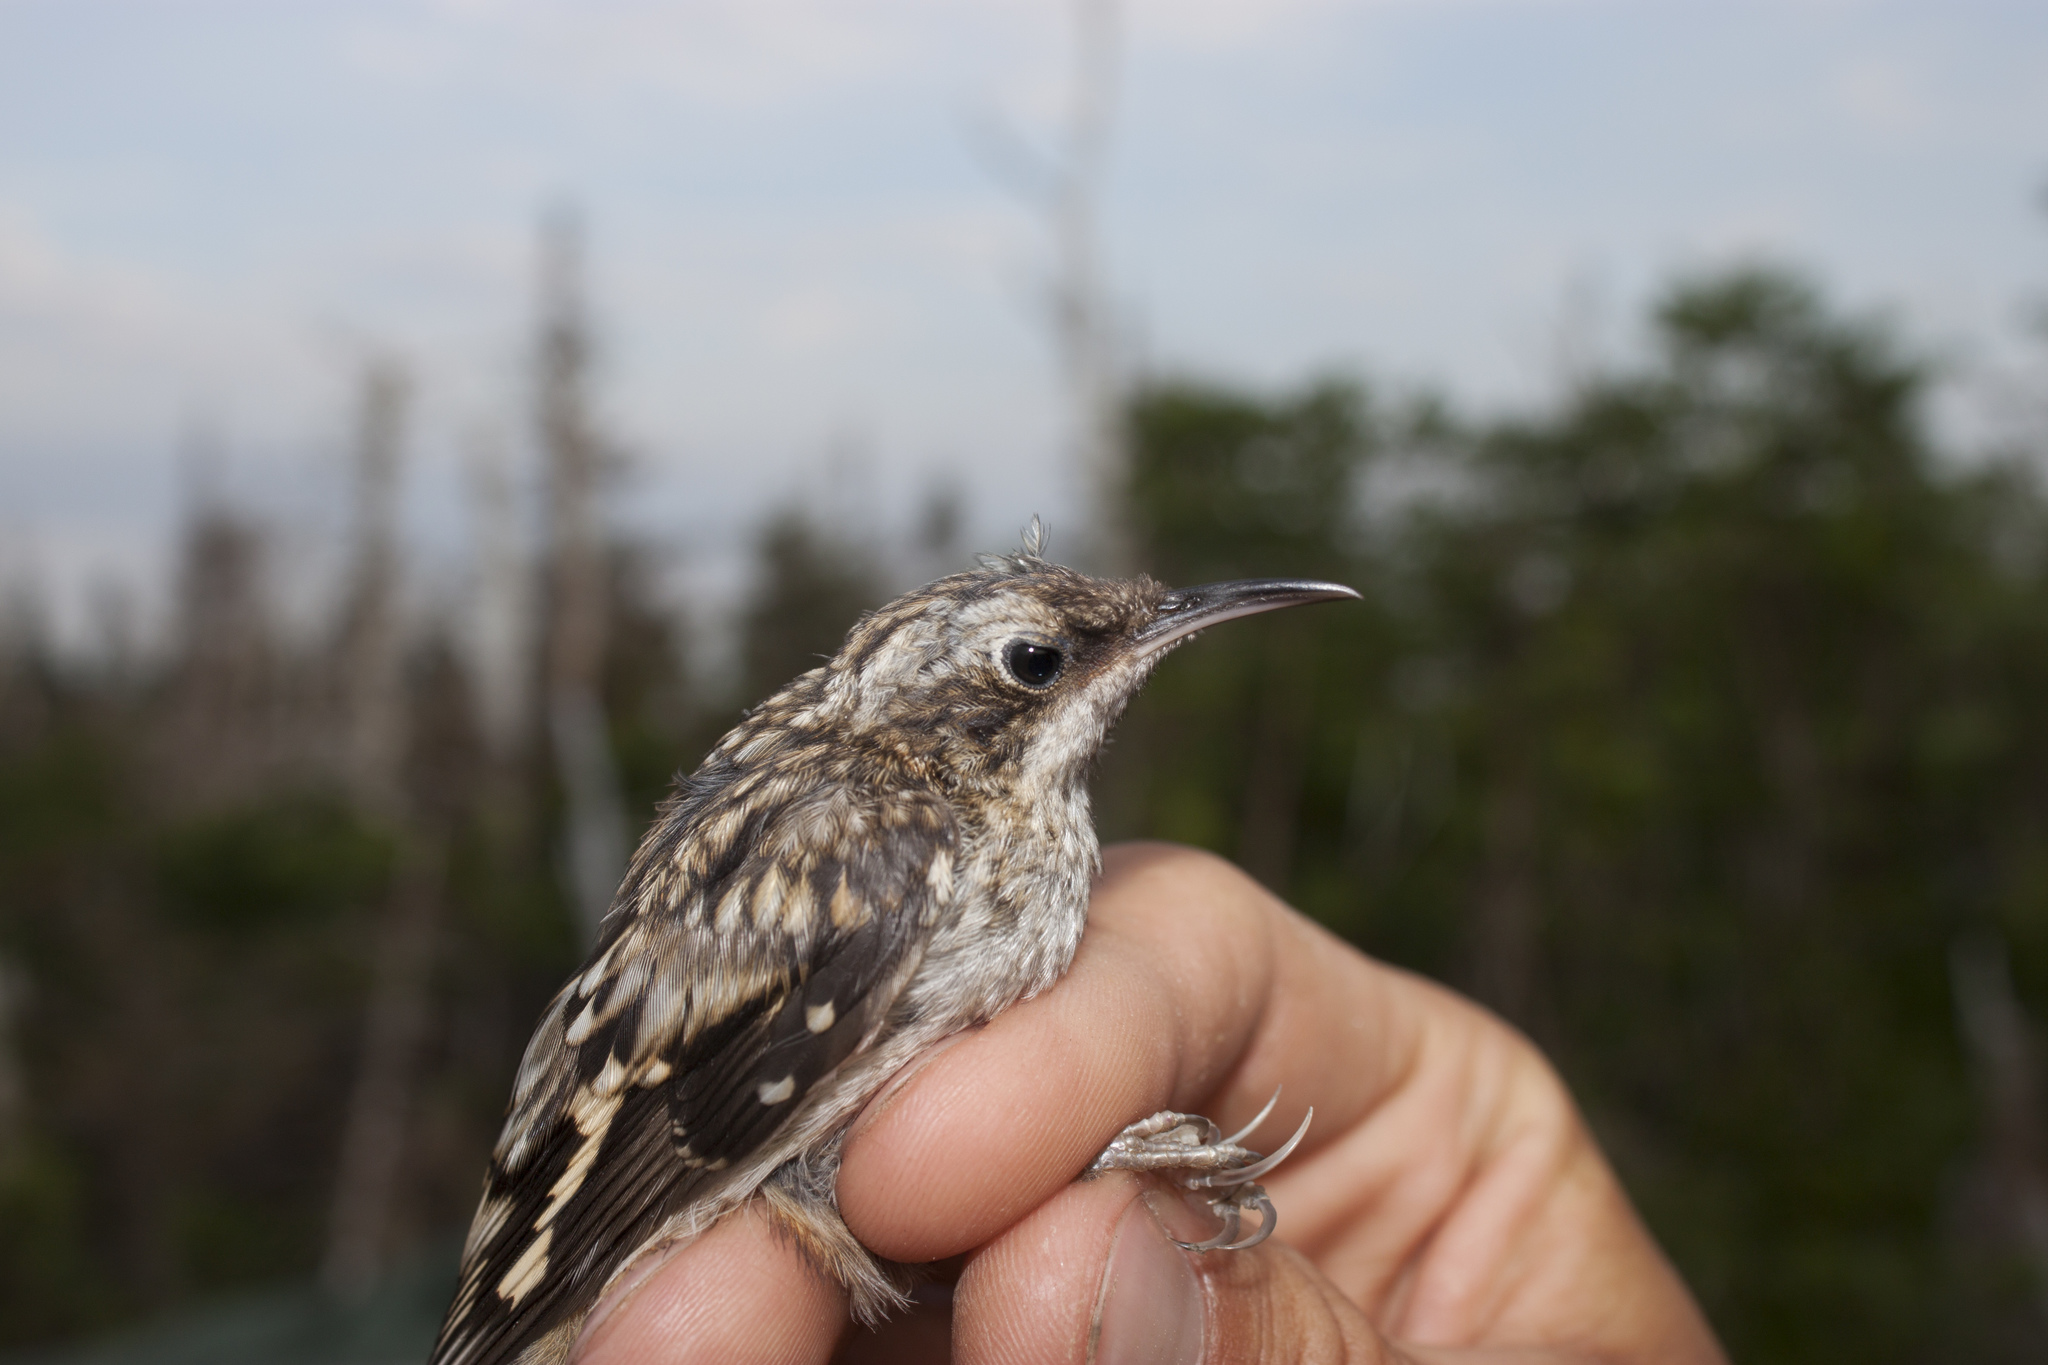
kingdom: Animalia
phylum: Chordata
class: Aves
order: Passeriformes
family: Certhiidae
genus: Certhia
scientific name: Certhia americana
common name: Brown creeper
